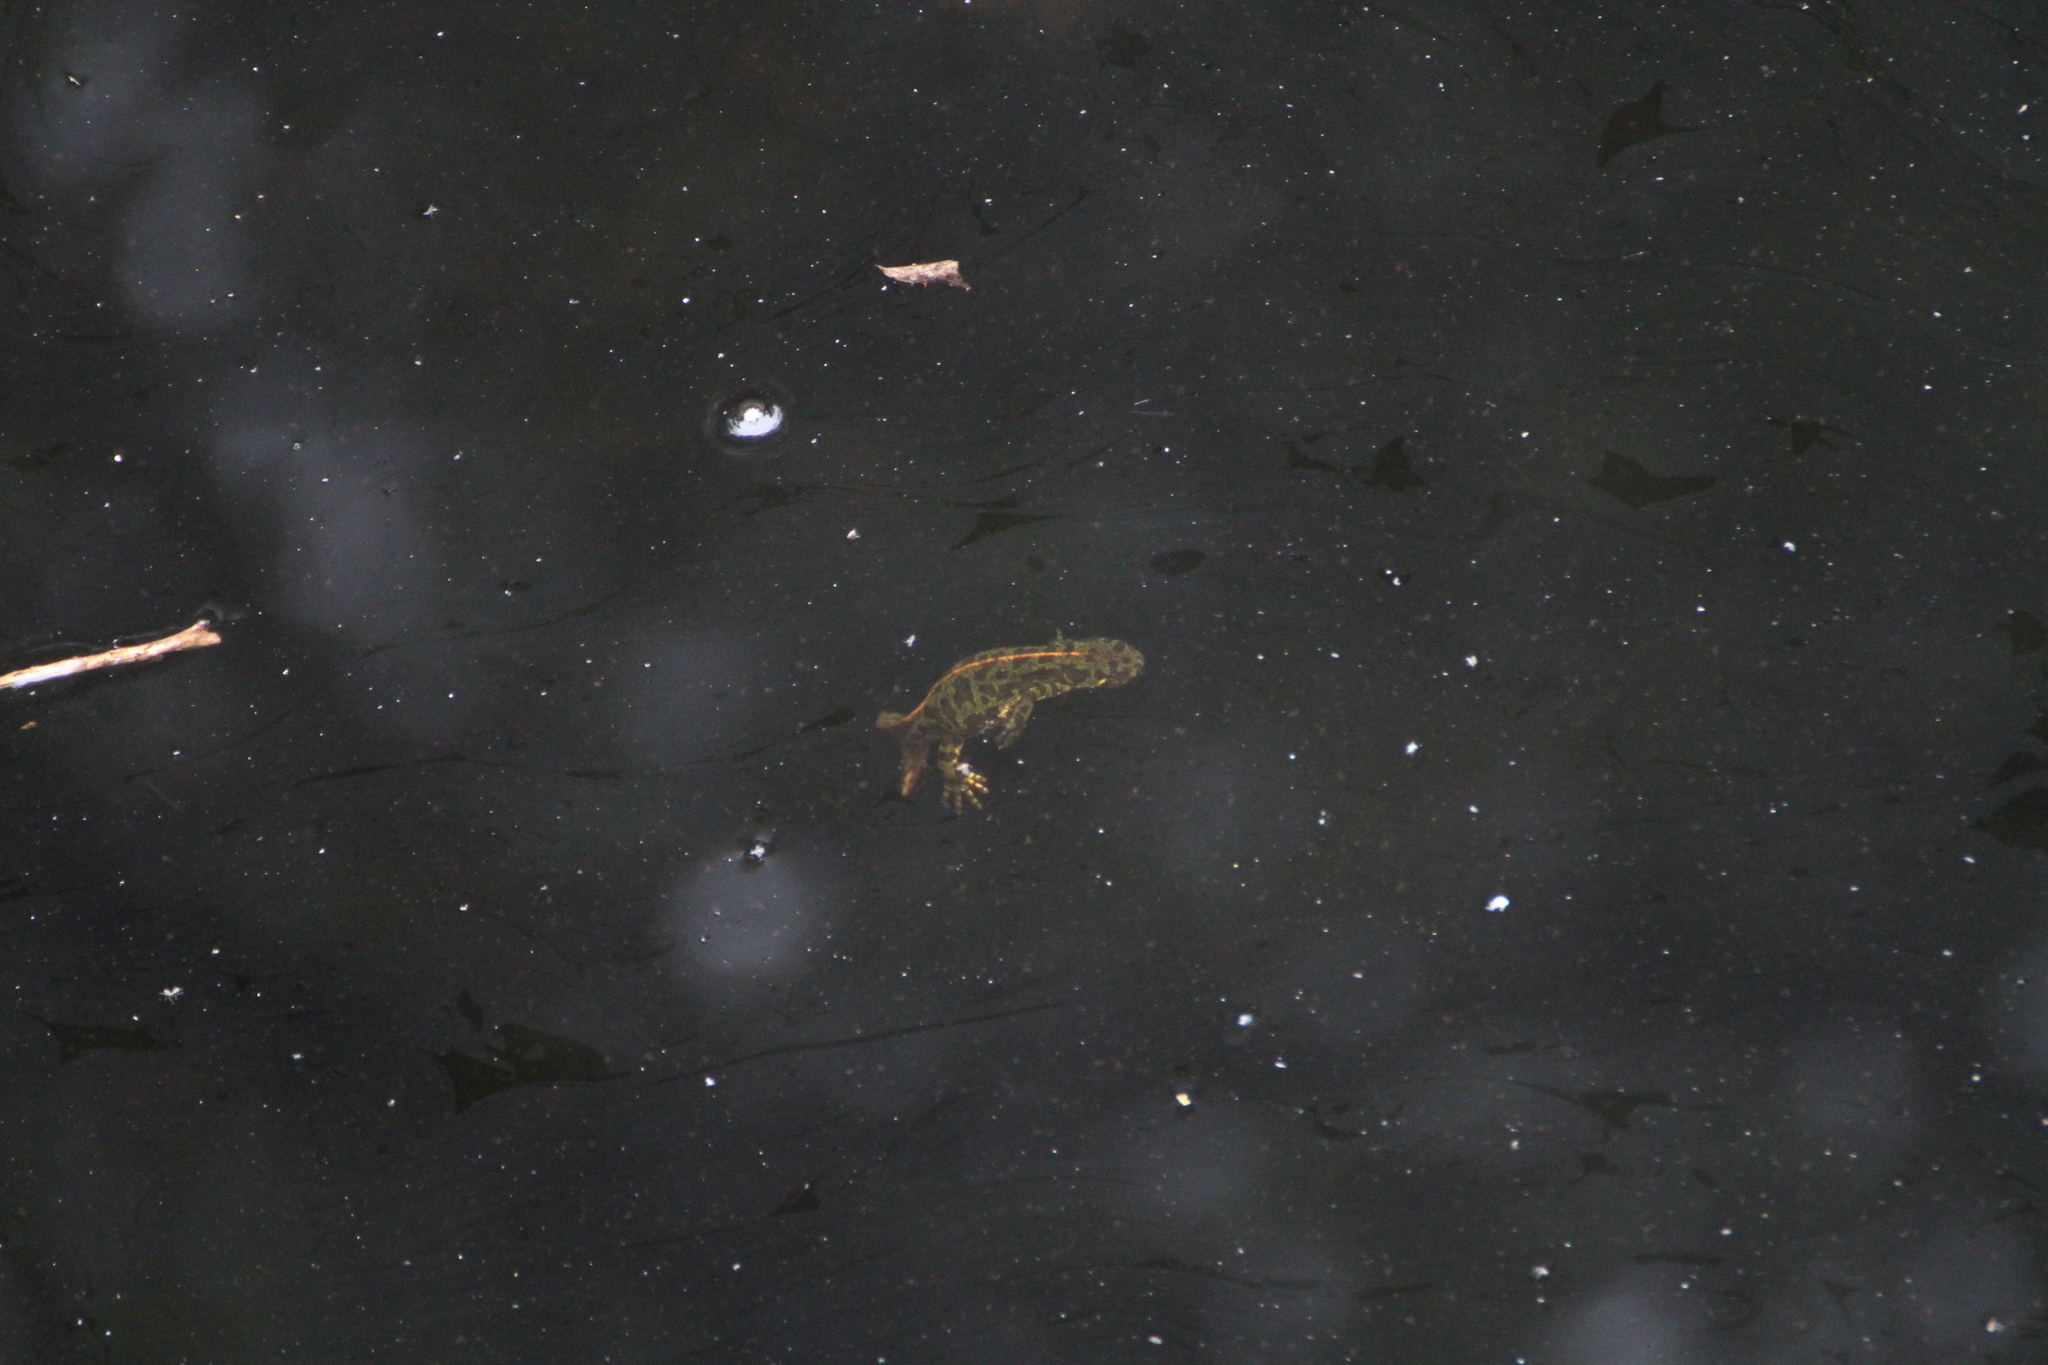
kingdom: Animalia
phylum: Chordata
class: Amphibia
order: Caudata
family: Salamandridae
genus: Triturus
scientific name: Triturus marmoratus
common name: Marbled newt
